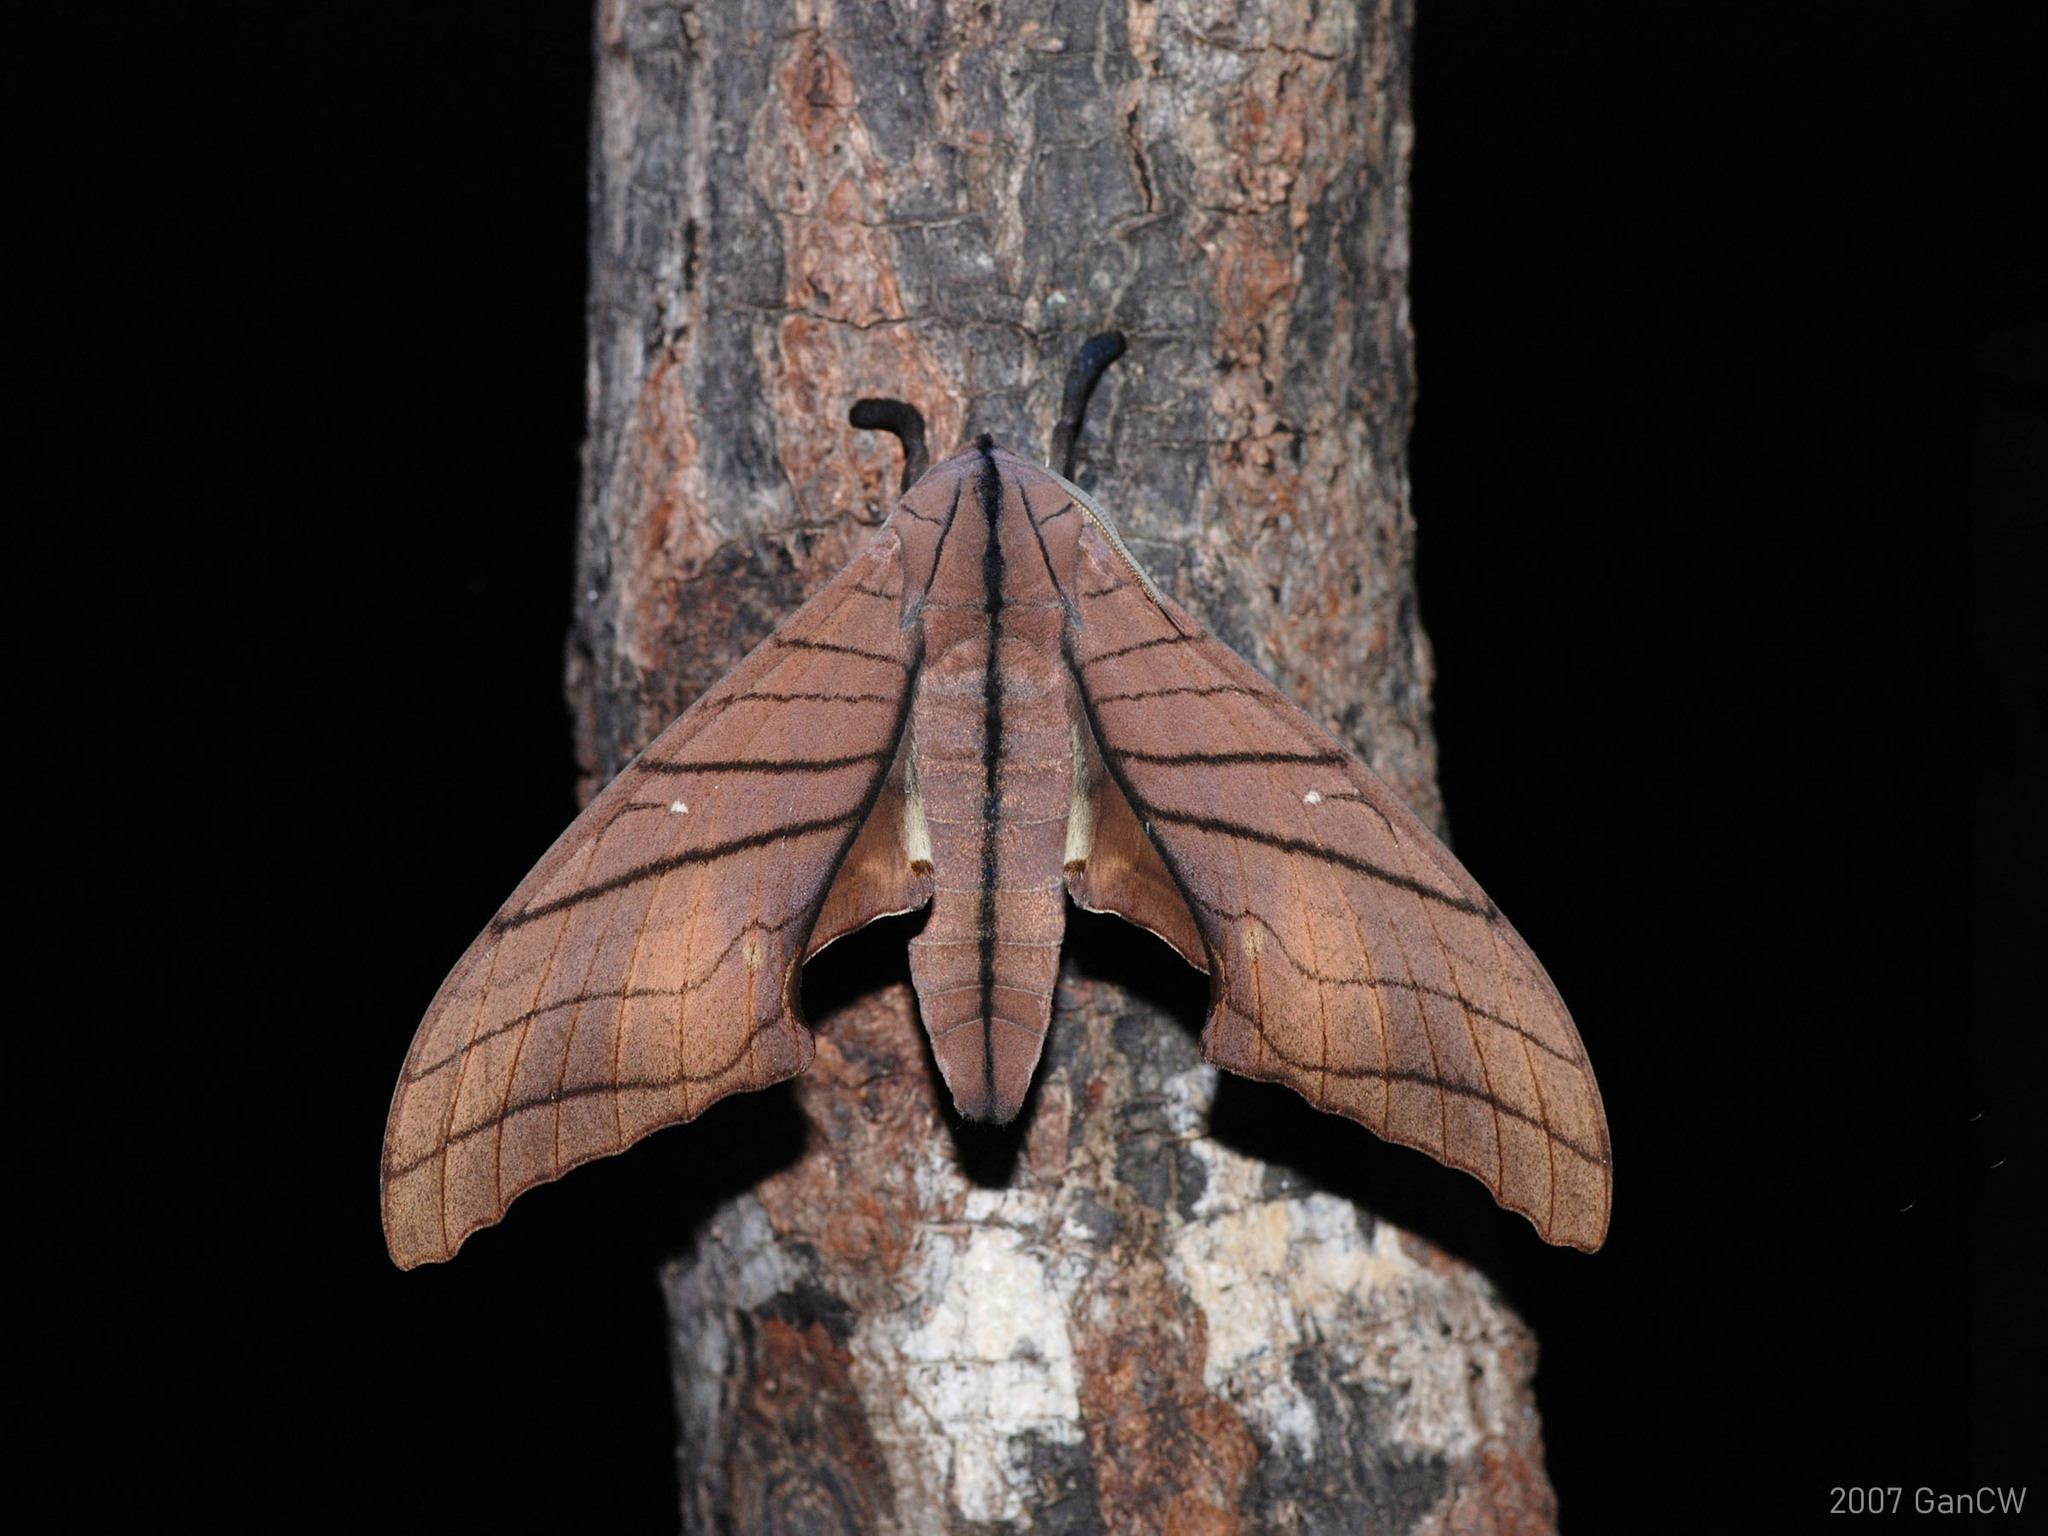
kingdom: Animalia
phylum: Arthropoda
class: Insecta
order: Lepidoptera
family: Sphingidae
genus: Marumba
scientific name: Marumba cristata
